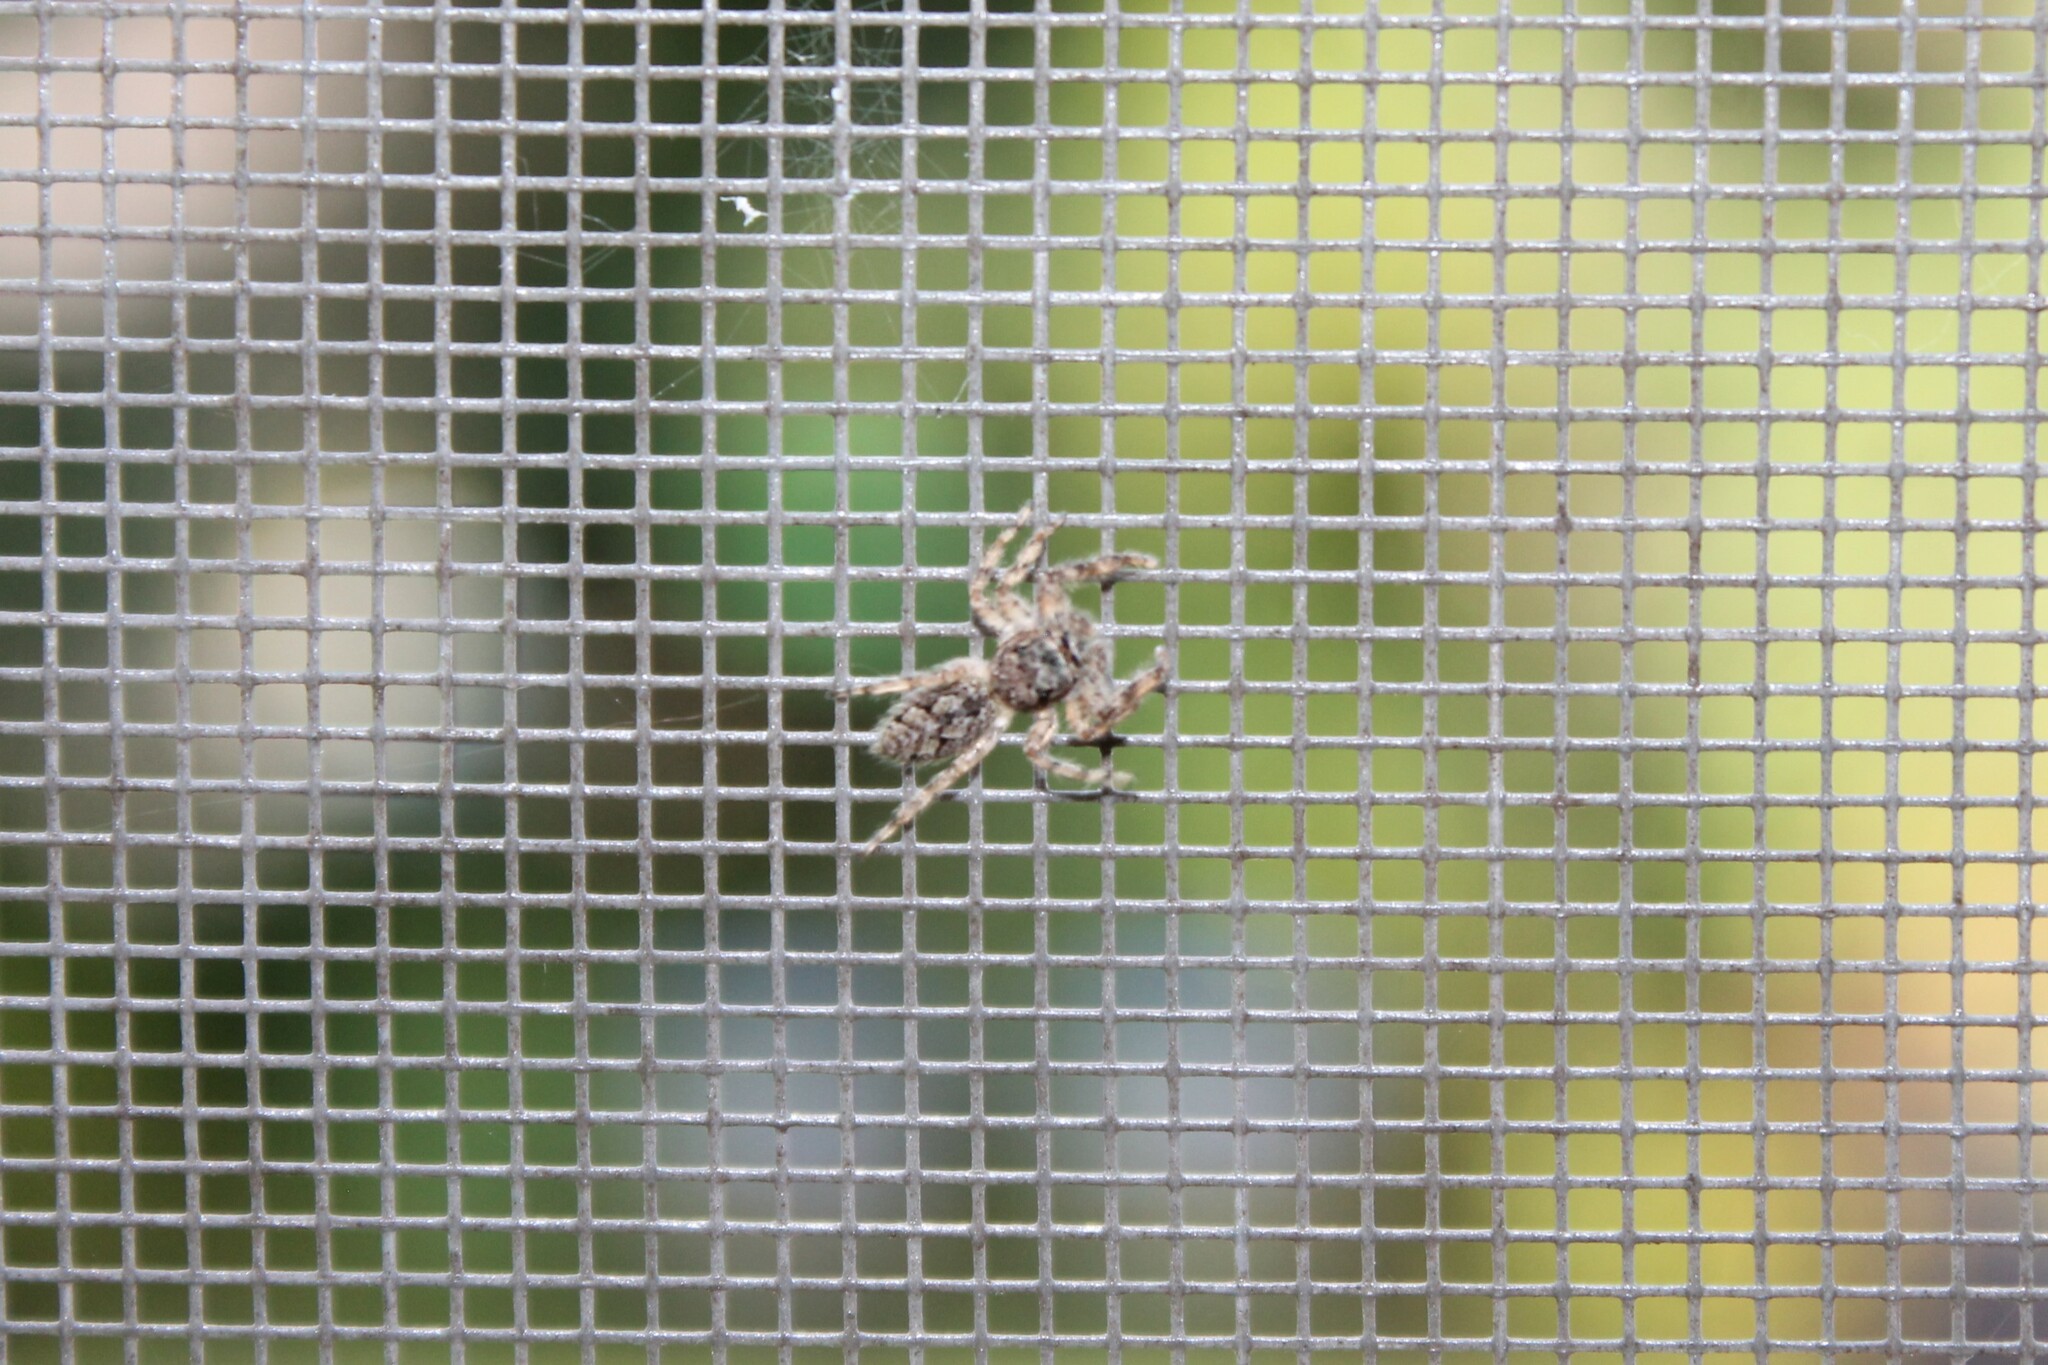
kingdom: Animalia
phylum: Arthropoda
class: Arachnida
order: Araneae
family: Salticidae
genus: Platycryptus
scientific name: Platycryptus undatus
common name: Tan jumping spider
